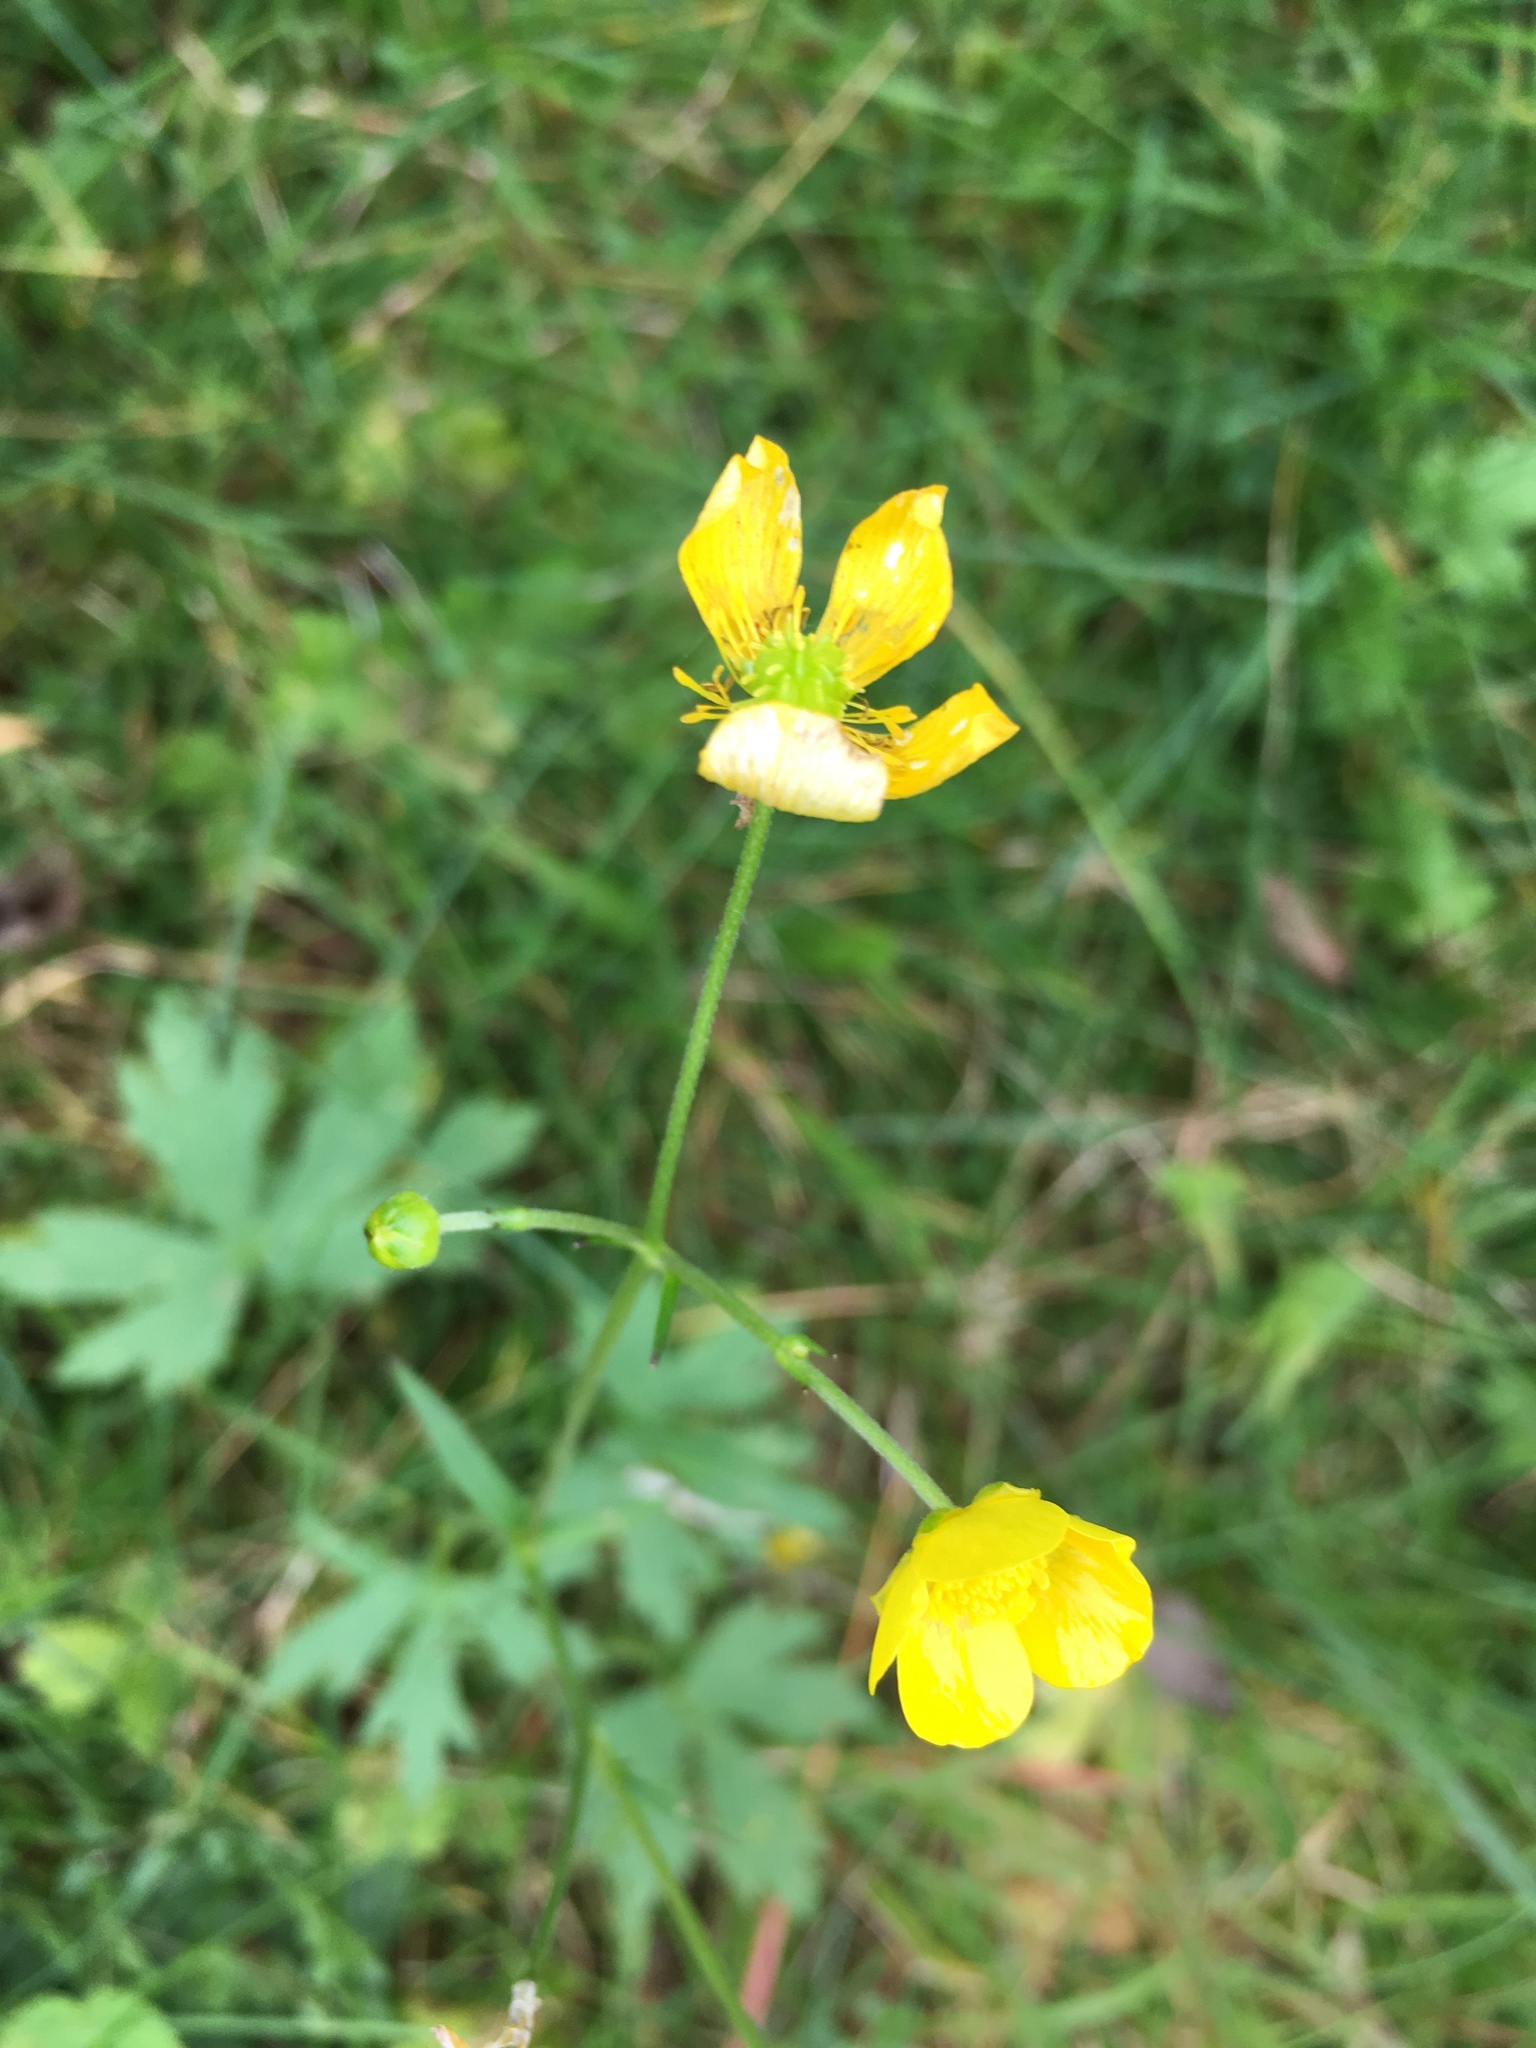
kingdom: Plantae
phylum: Tracheophyta
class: Magnoliopsida
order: Ranunculales
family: Ranunculaceae
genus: Ranunculus
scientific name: Ranunculus acris
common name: Meadow buttercup
